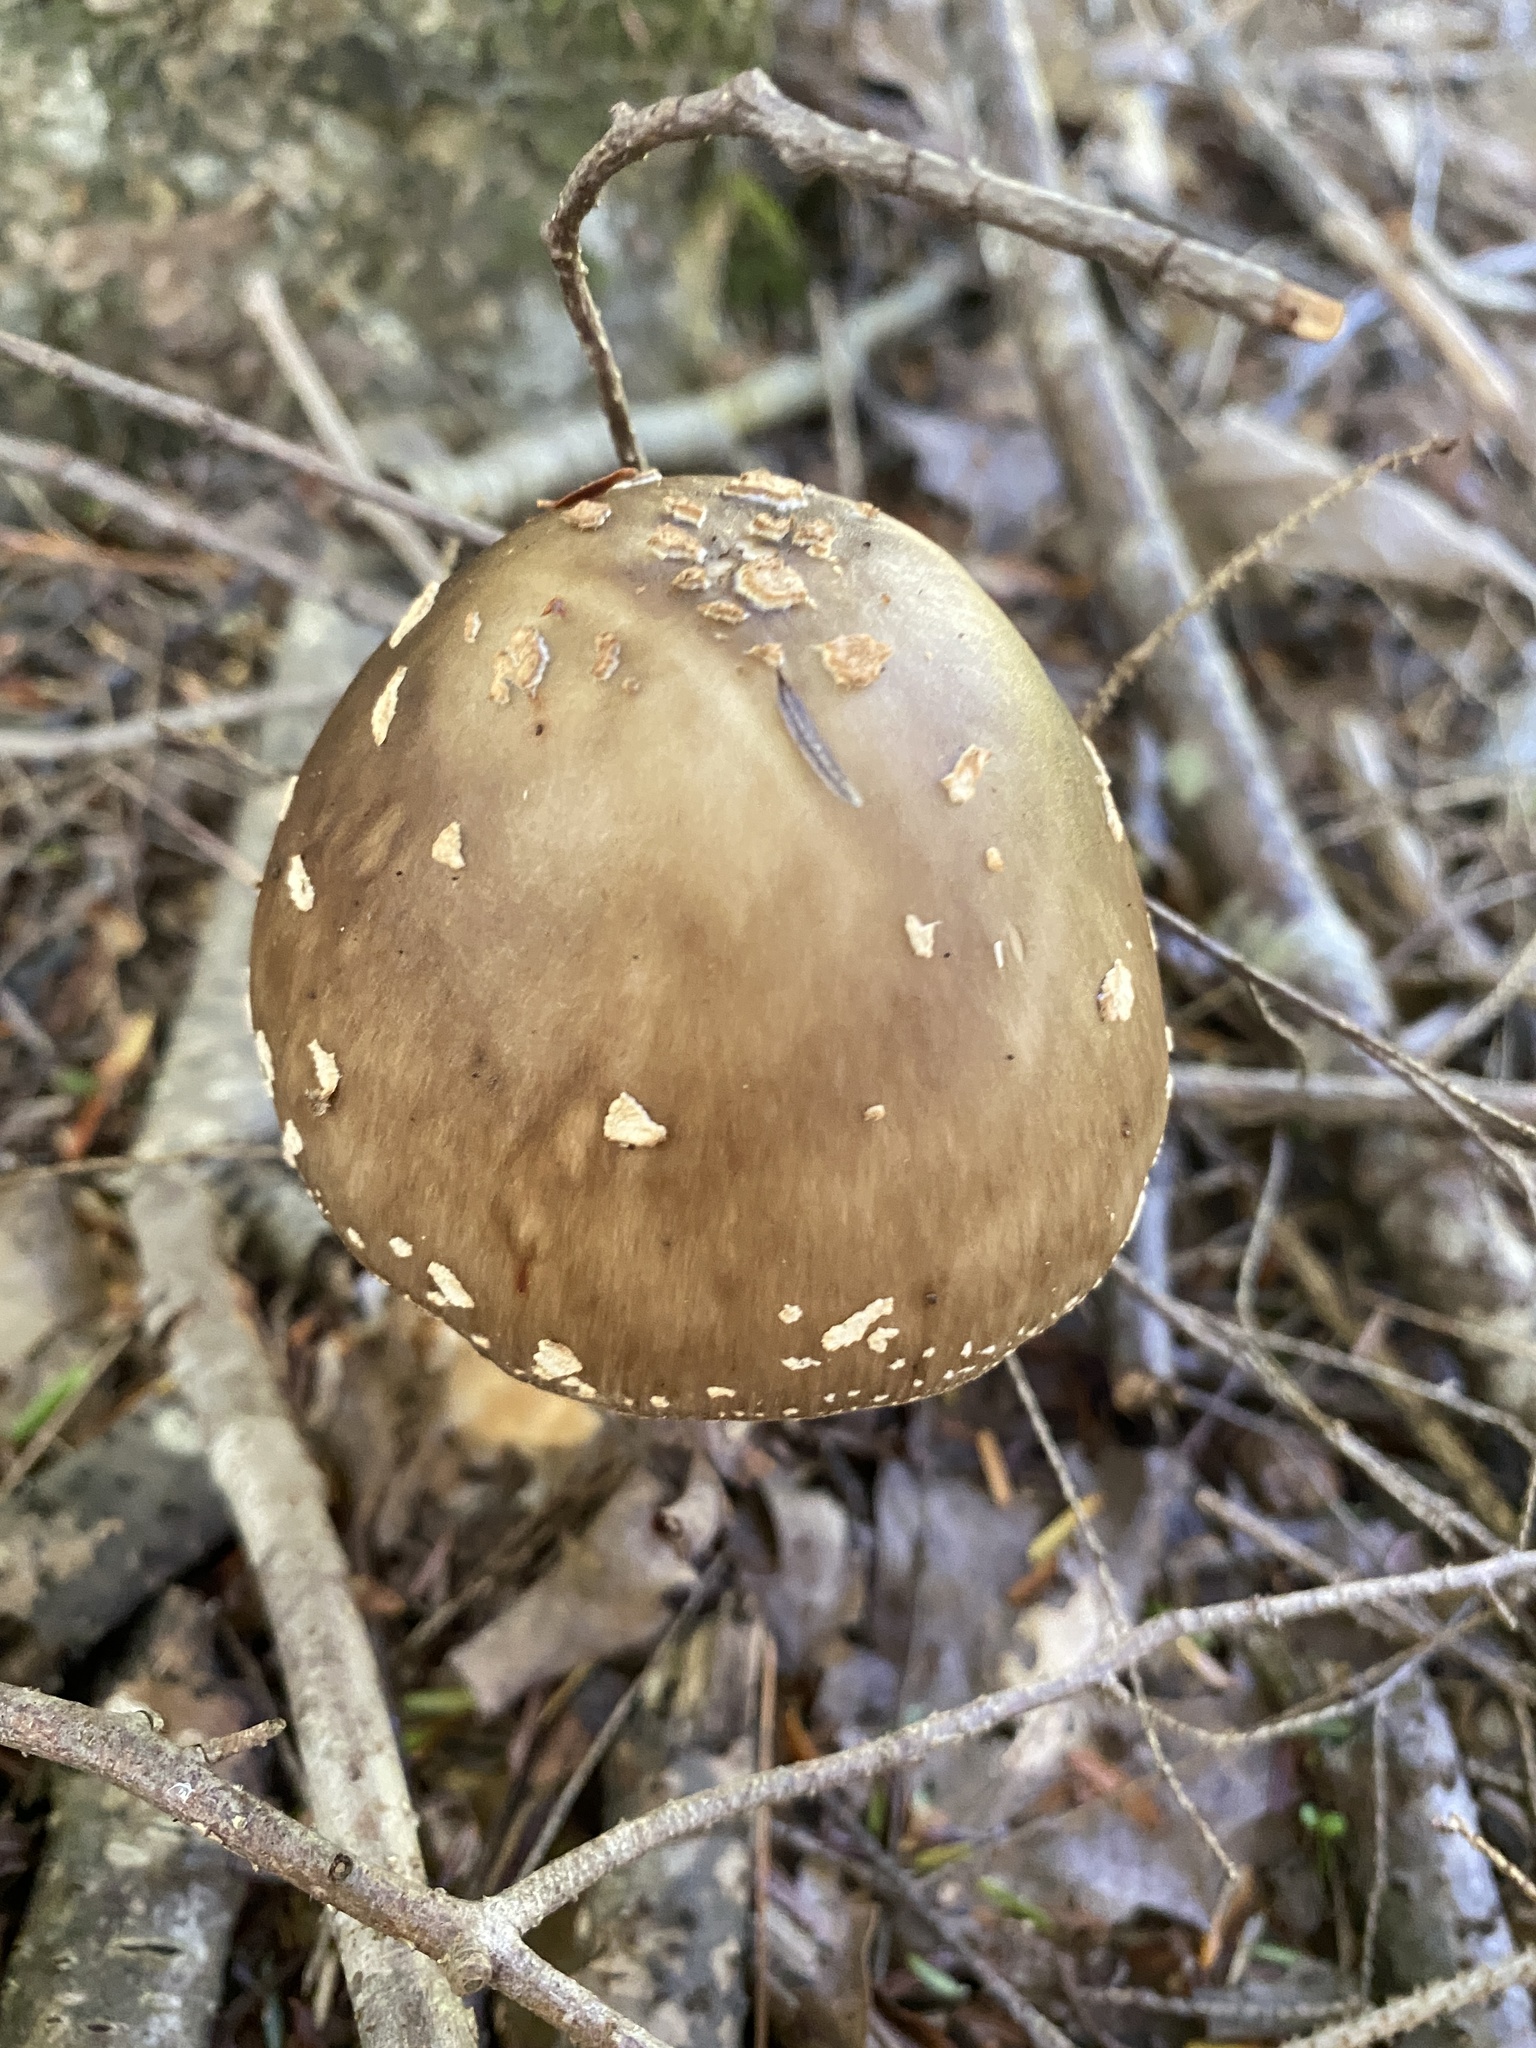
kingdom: Fungi
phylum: Basidiomycota
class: Agaricomycetes
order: Agaricales
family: Amanitaceae
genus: Amanita
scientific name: Amanita brunnescens
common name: Brown american star-footed amanita
